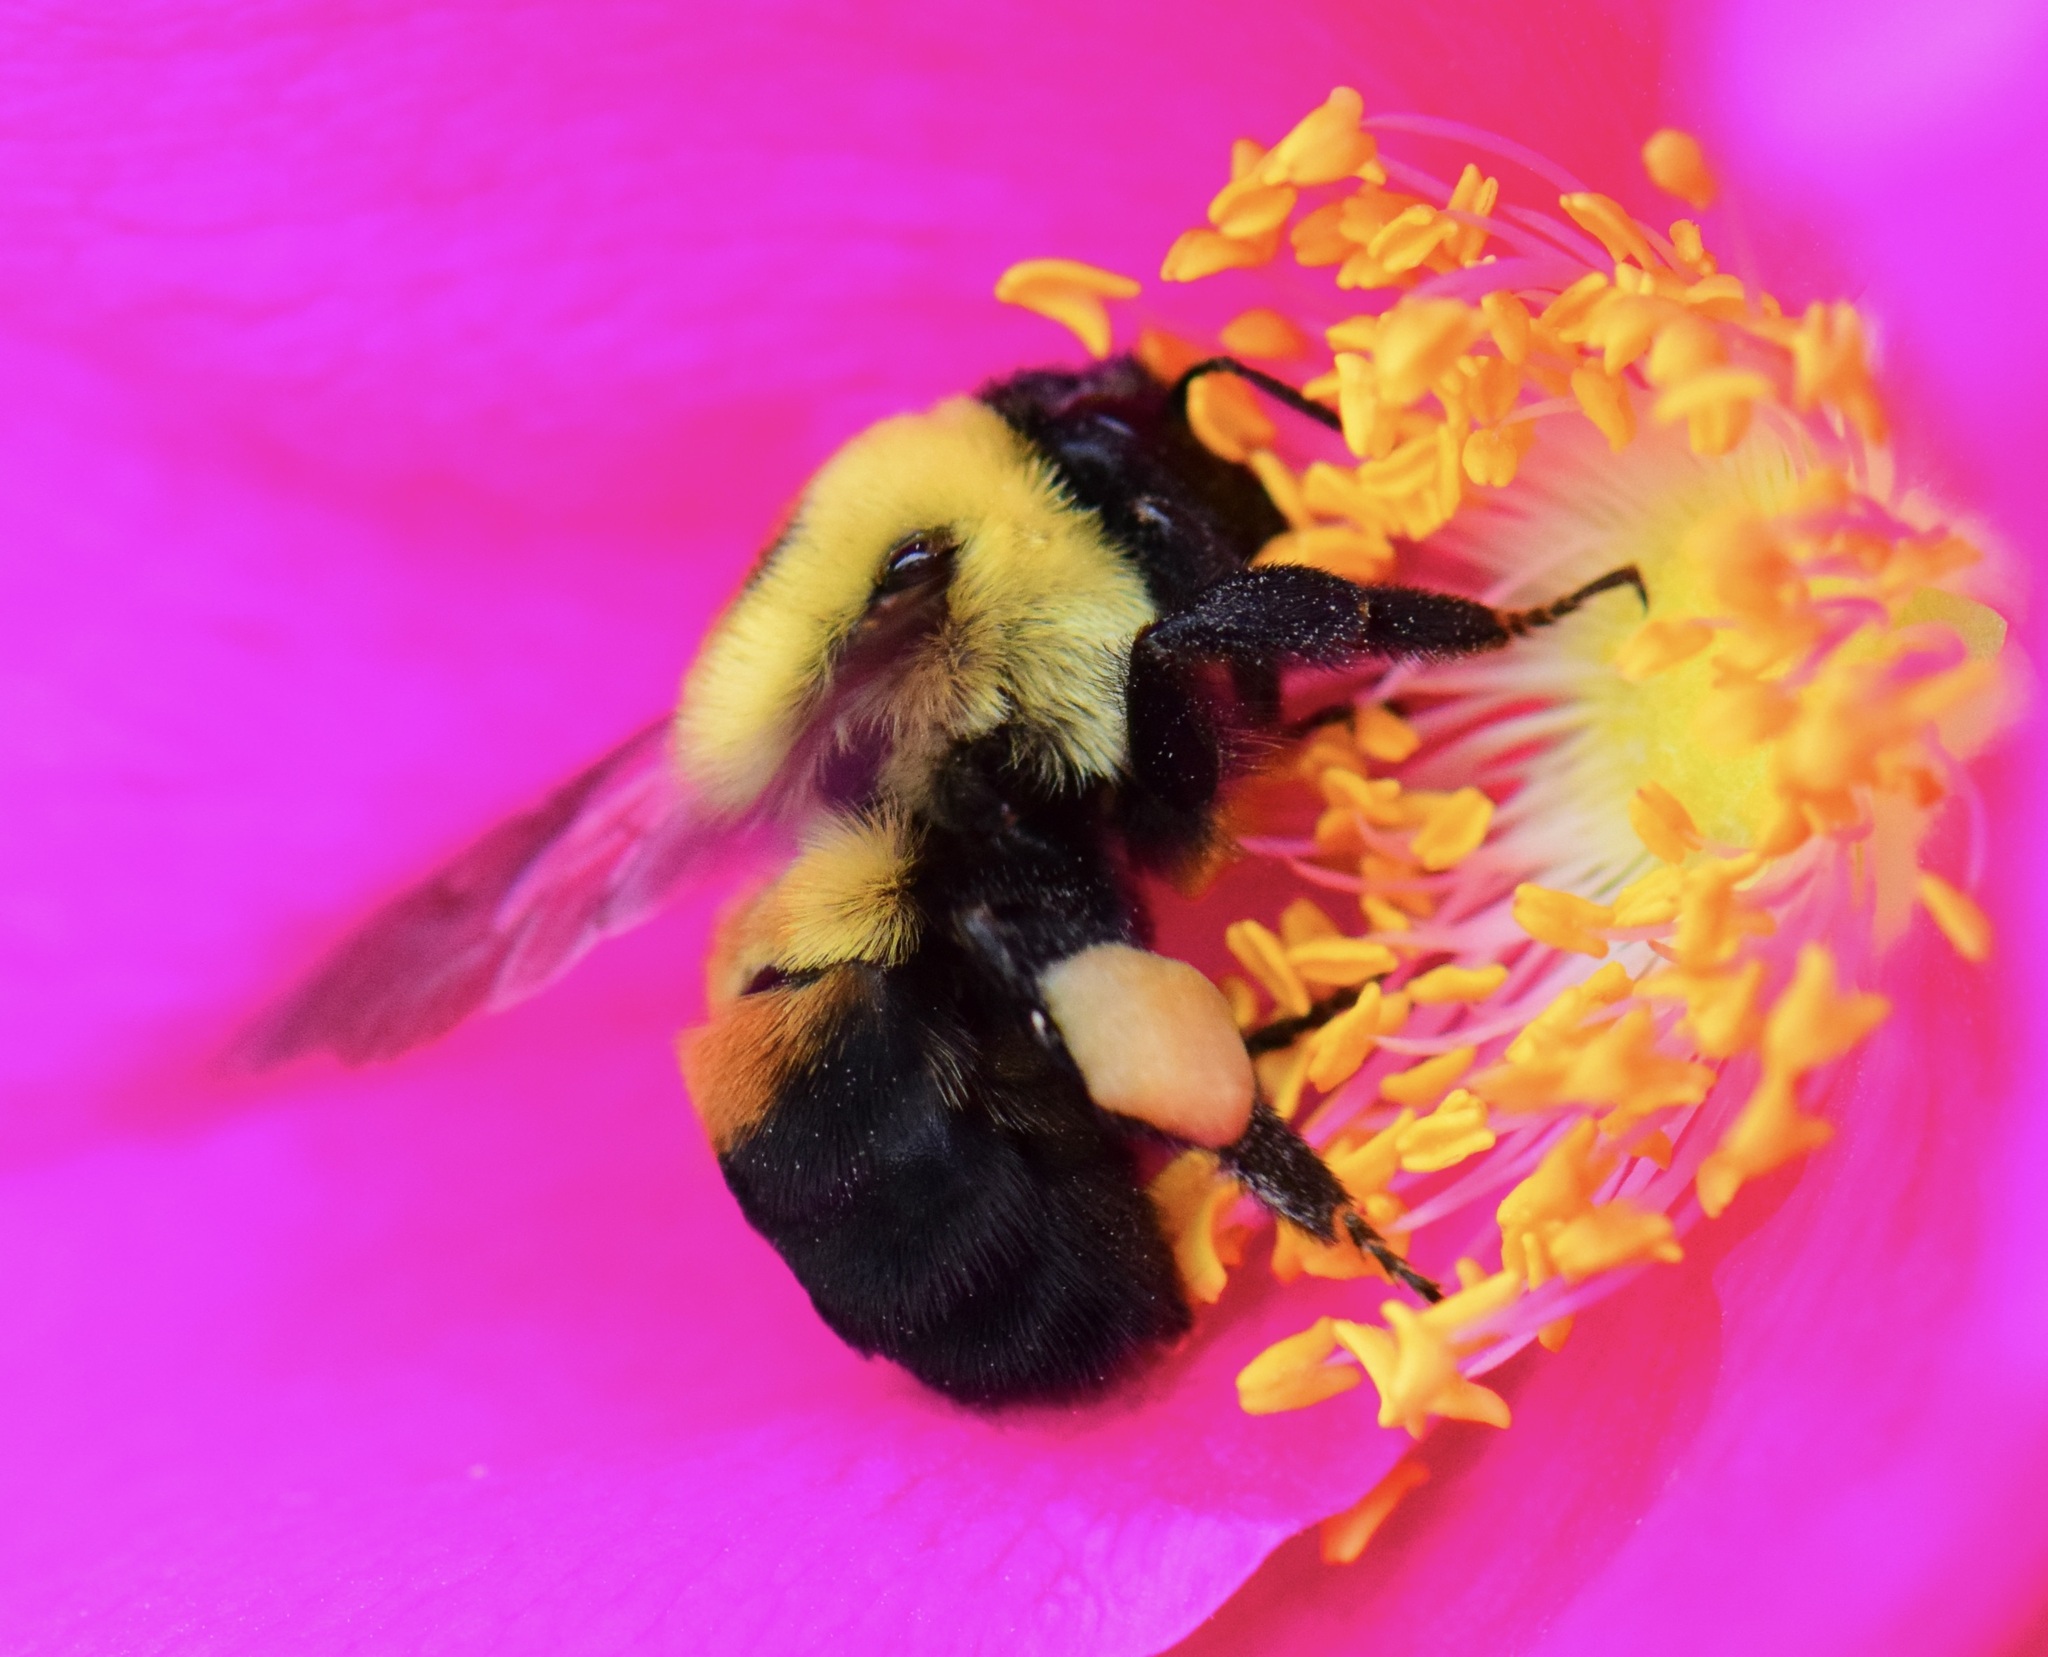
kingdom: Animalia
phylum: Arthropoda
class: Insecta
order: Hymenoptera
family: Apidae
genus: Bombus
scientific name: Bombus griseocollis
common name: Brown-belted bumble bee
